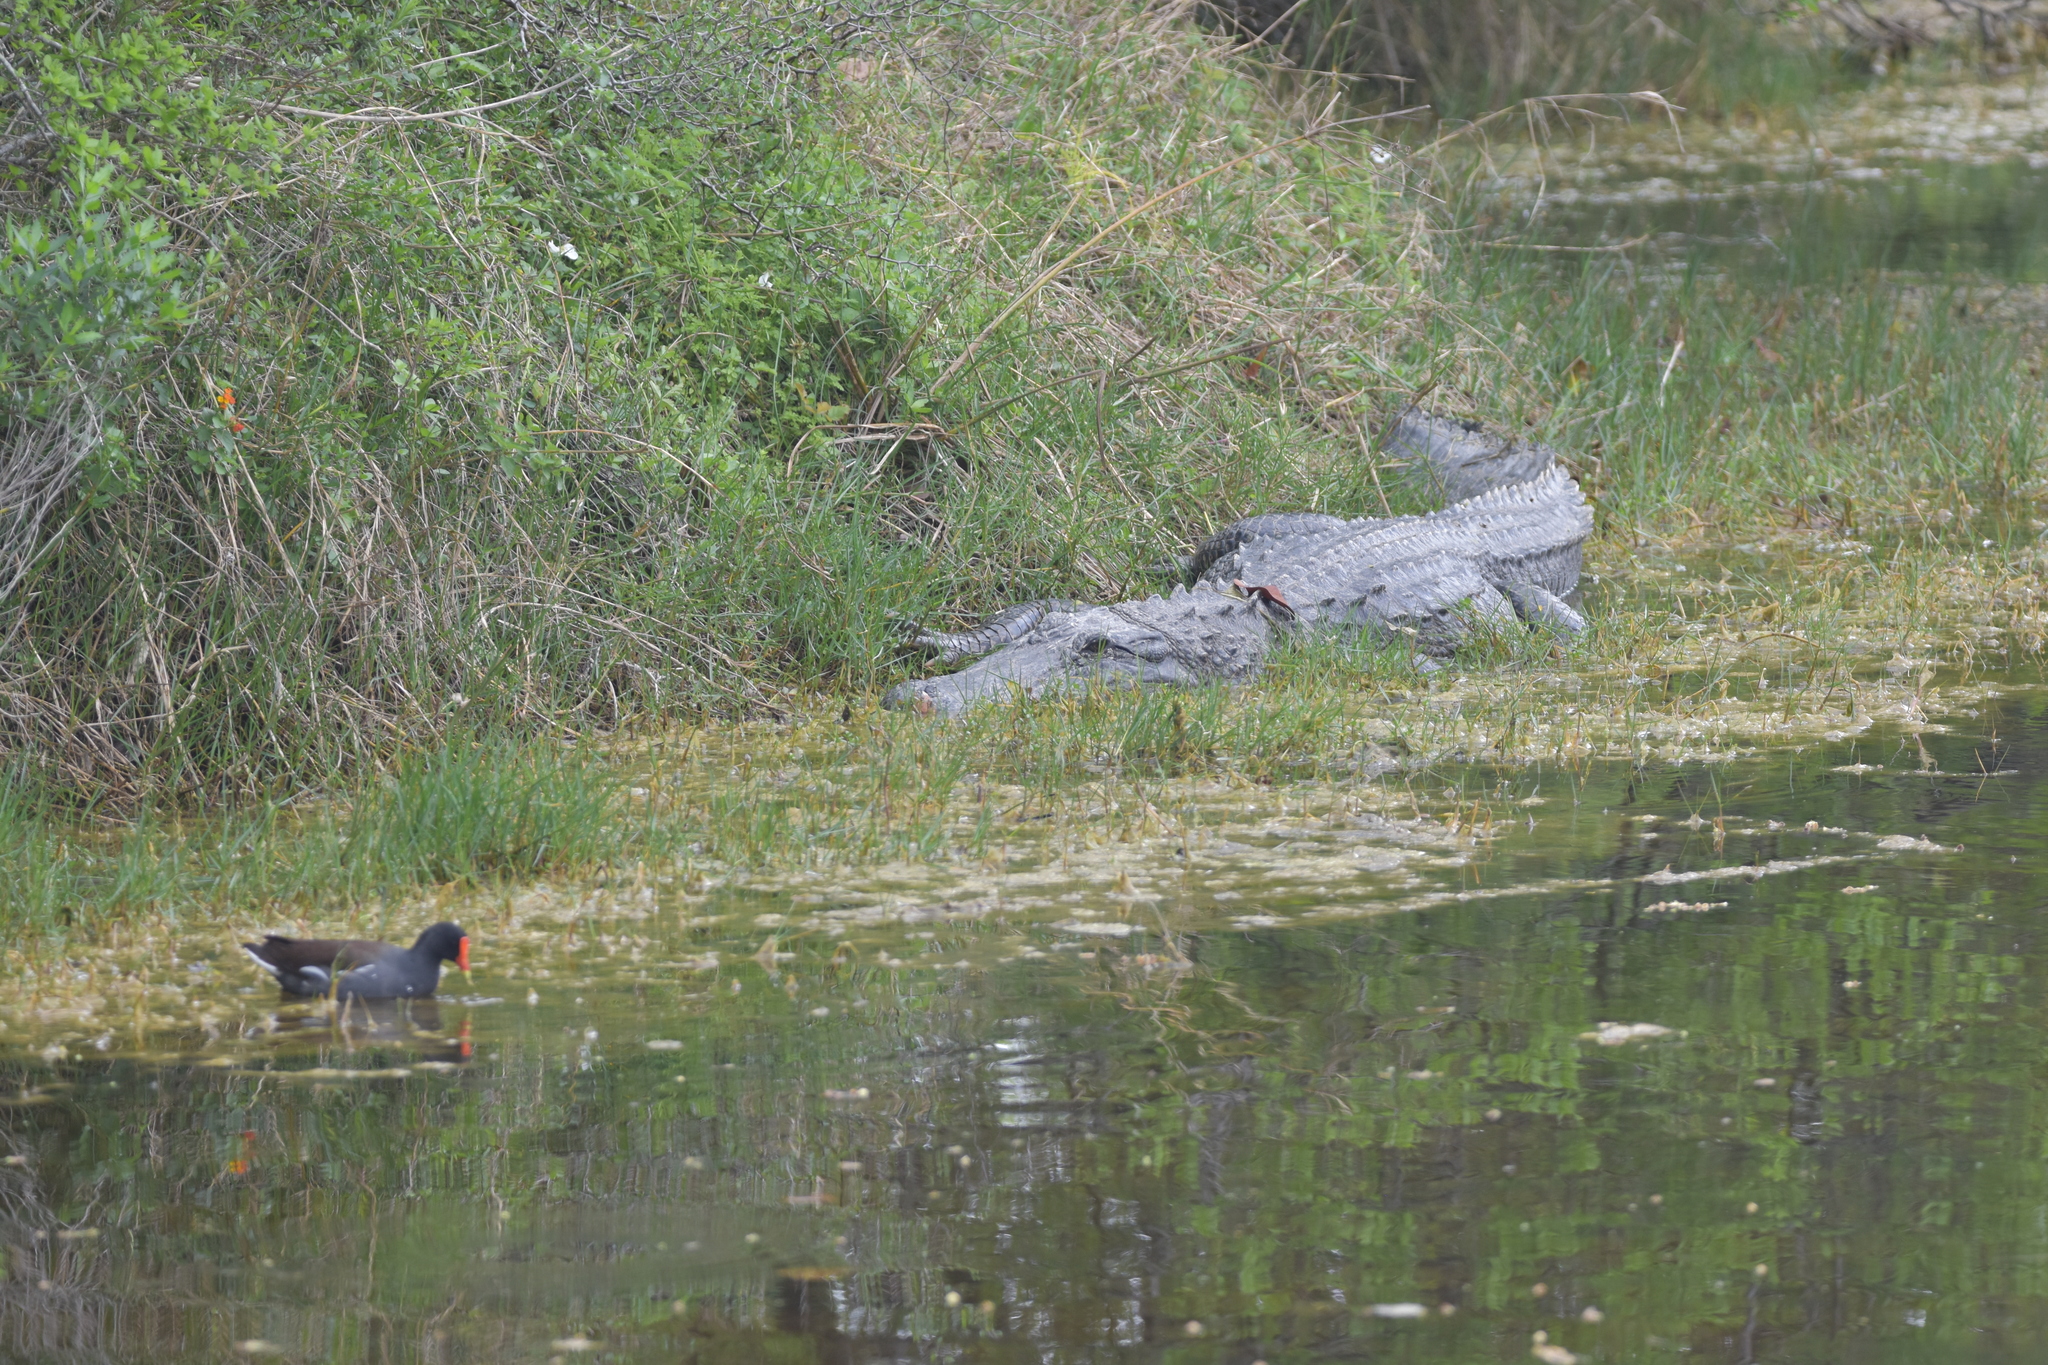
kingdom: Animalia
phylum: Chordata
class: Crocodylia
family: Alligatoridae
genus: Alligator
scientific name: Alligator mississippiensis
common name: American alligator
